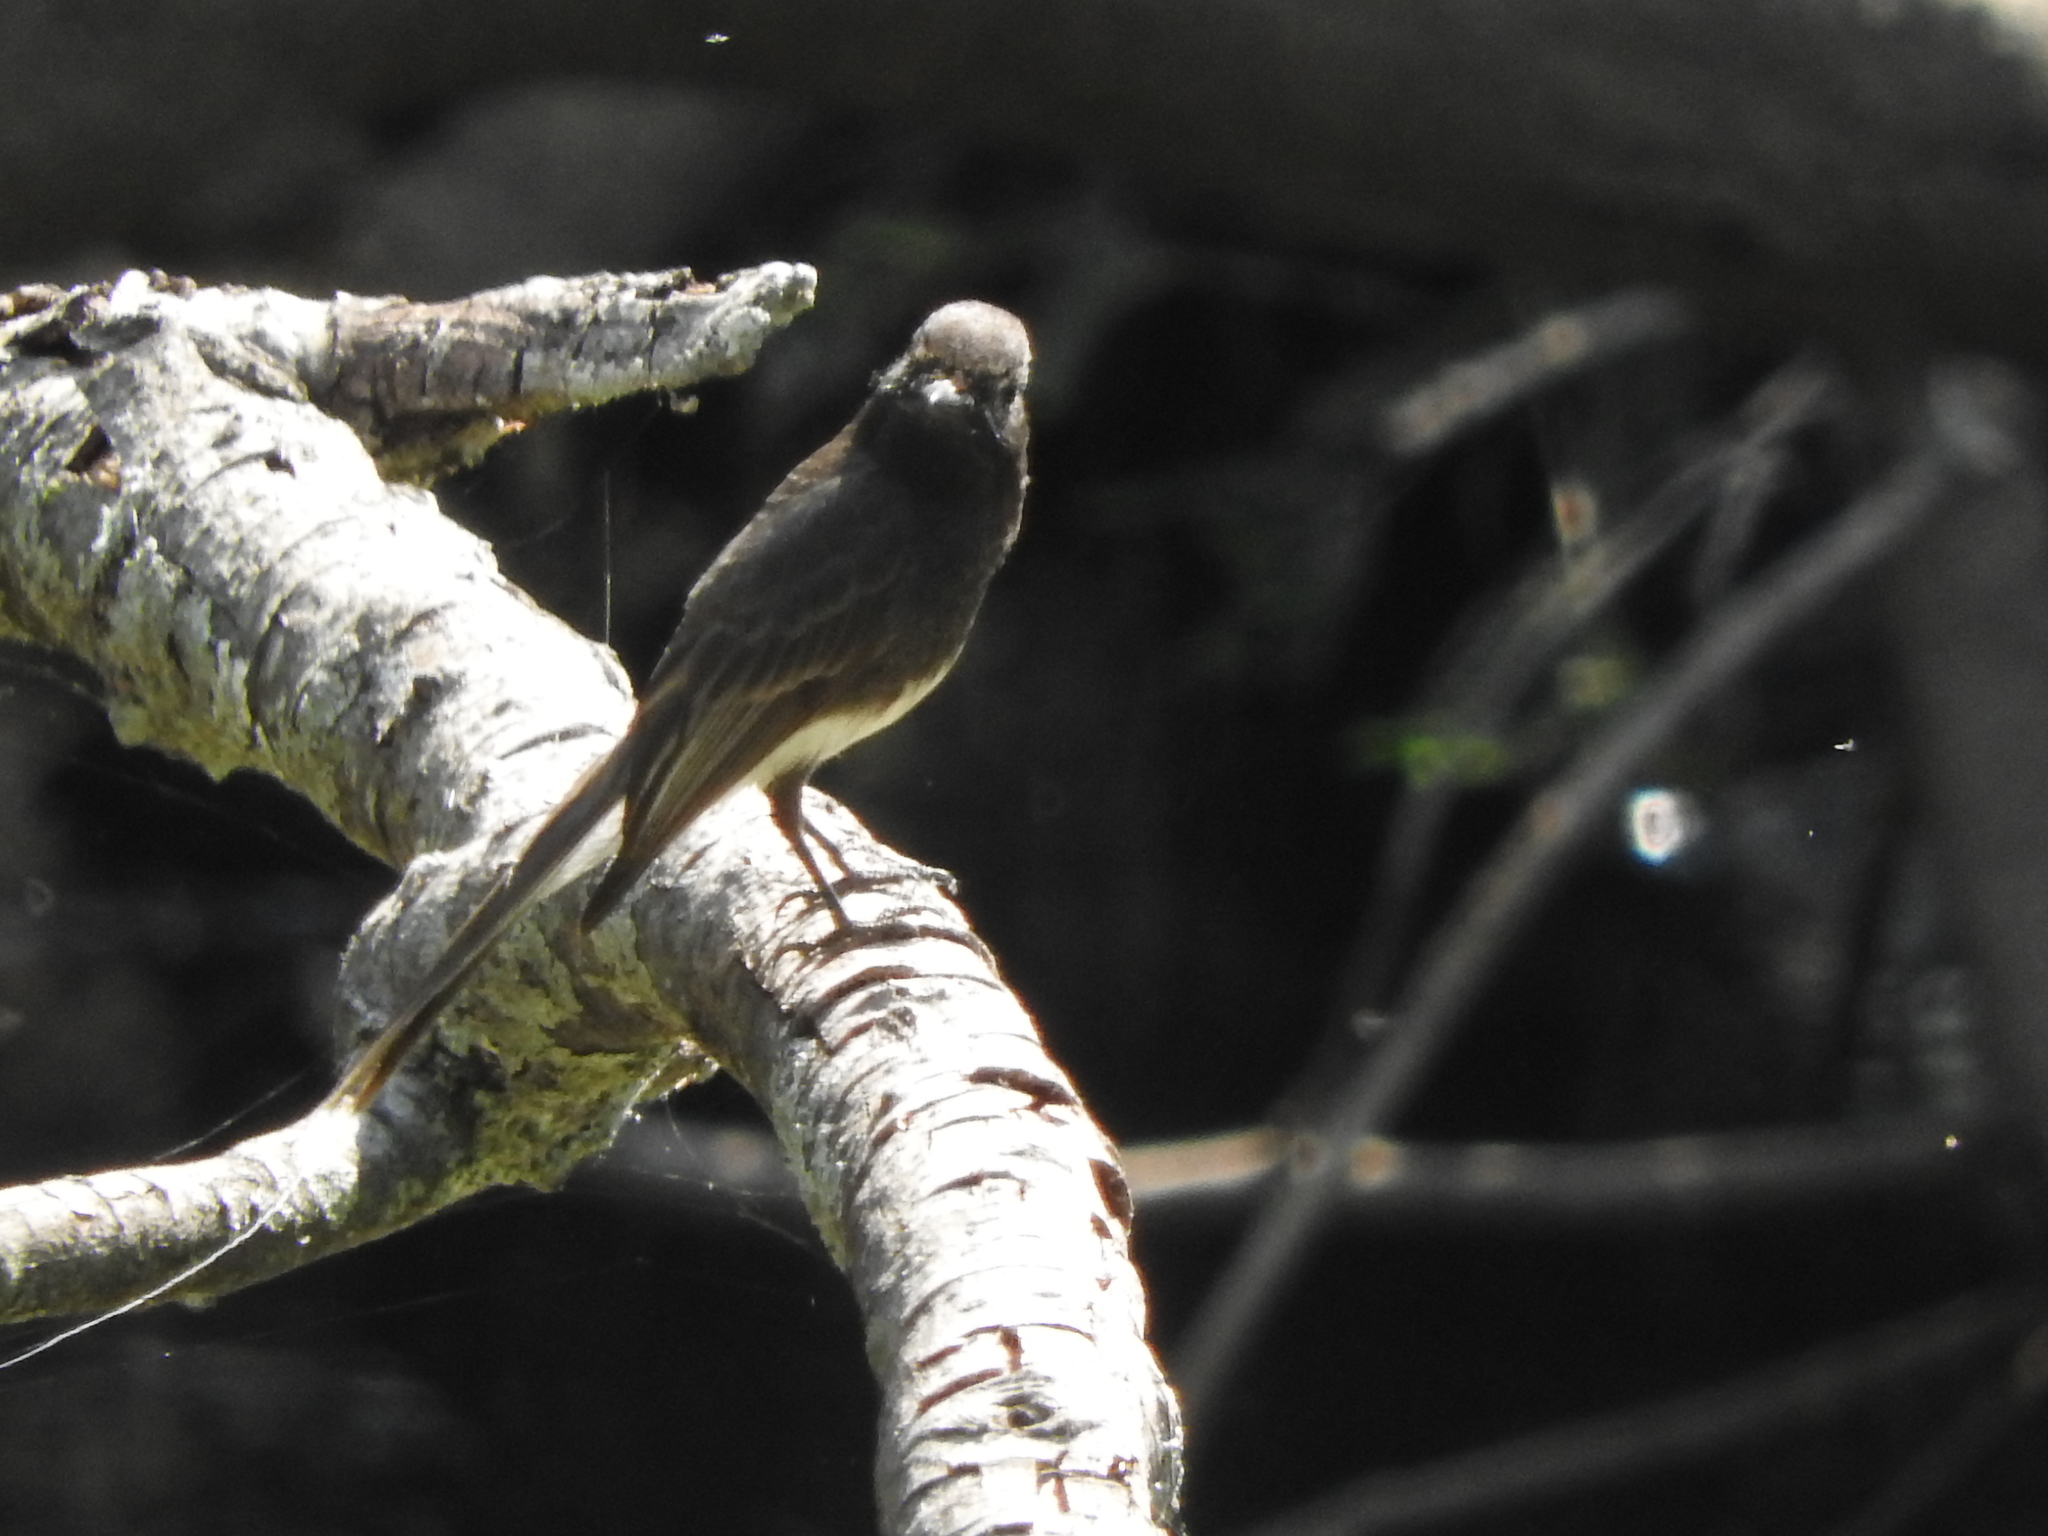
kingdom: Animalia
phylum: Chordata
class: Aves
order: Passeriformes
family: Tyrannidae
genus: Sayornis
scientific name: Sayornis nigricans
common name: Black phoebe
